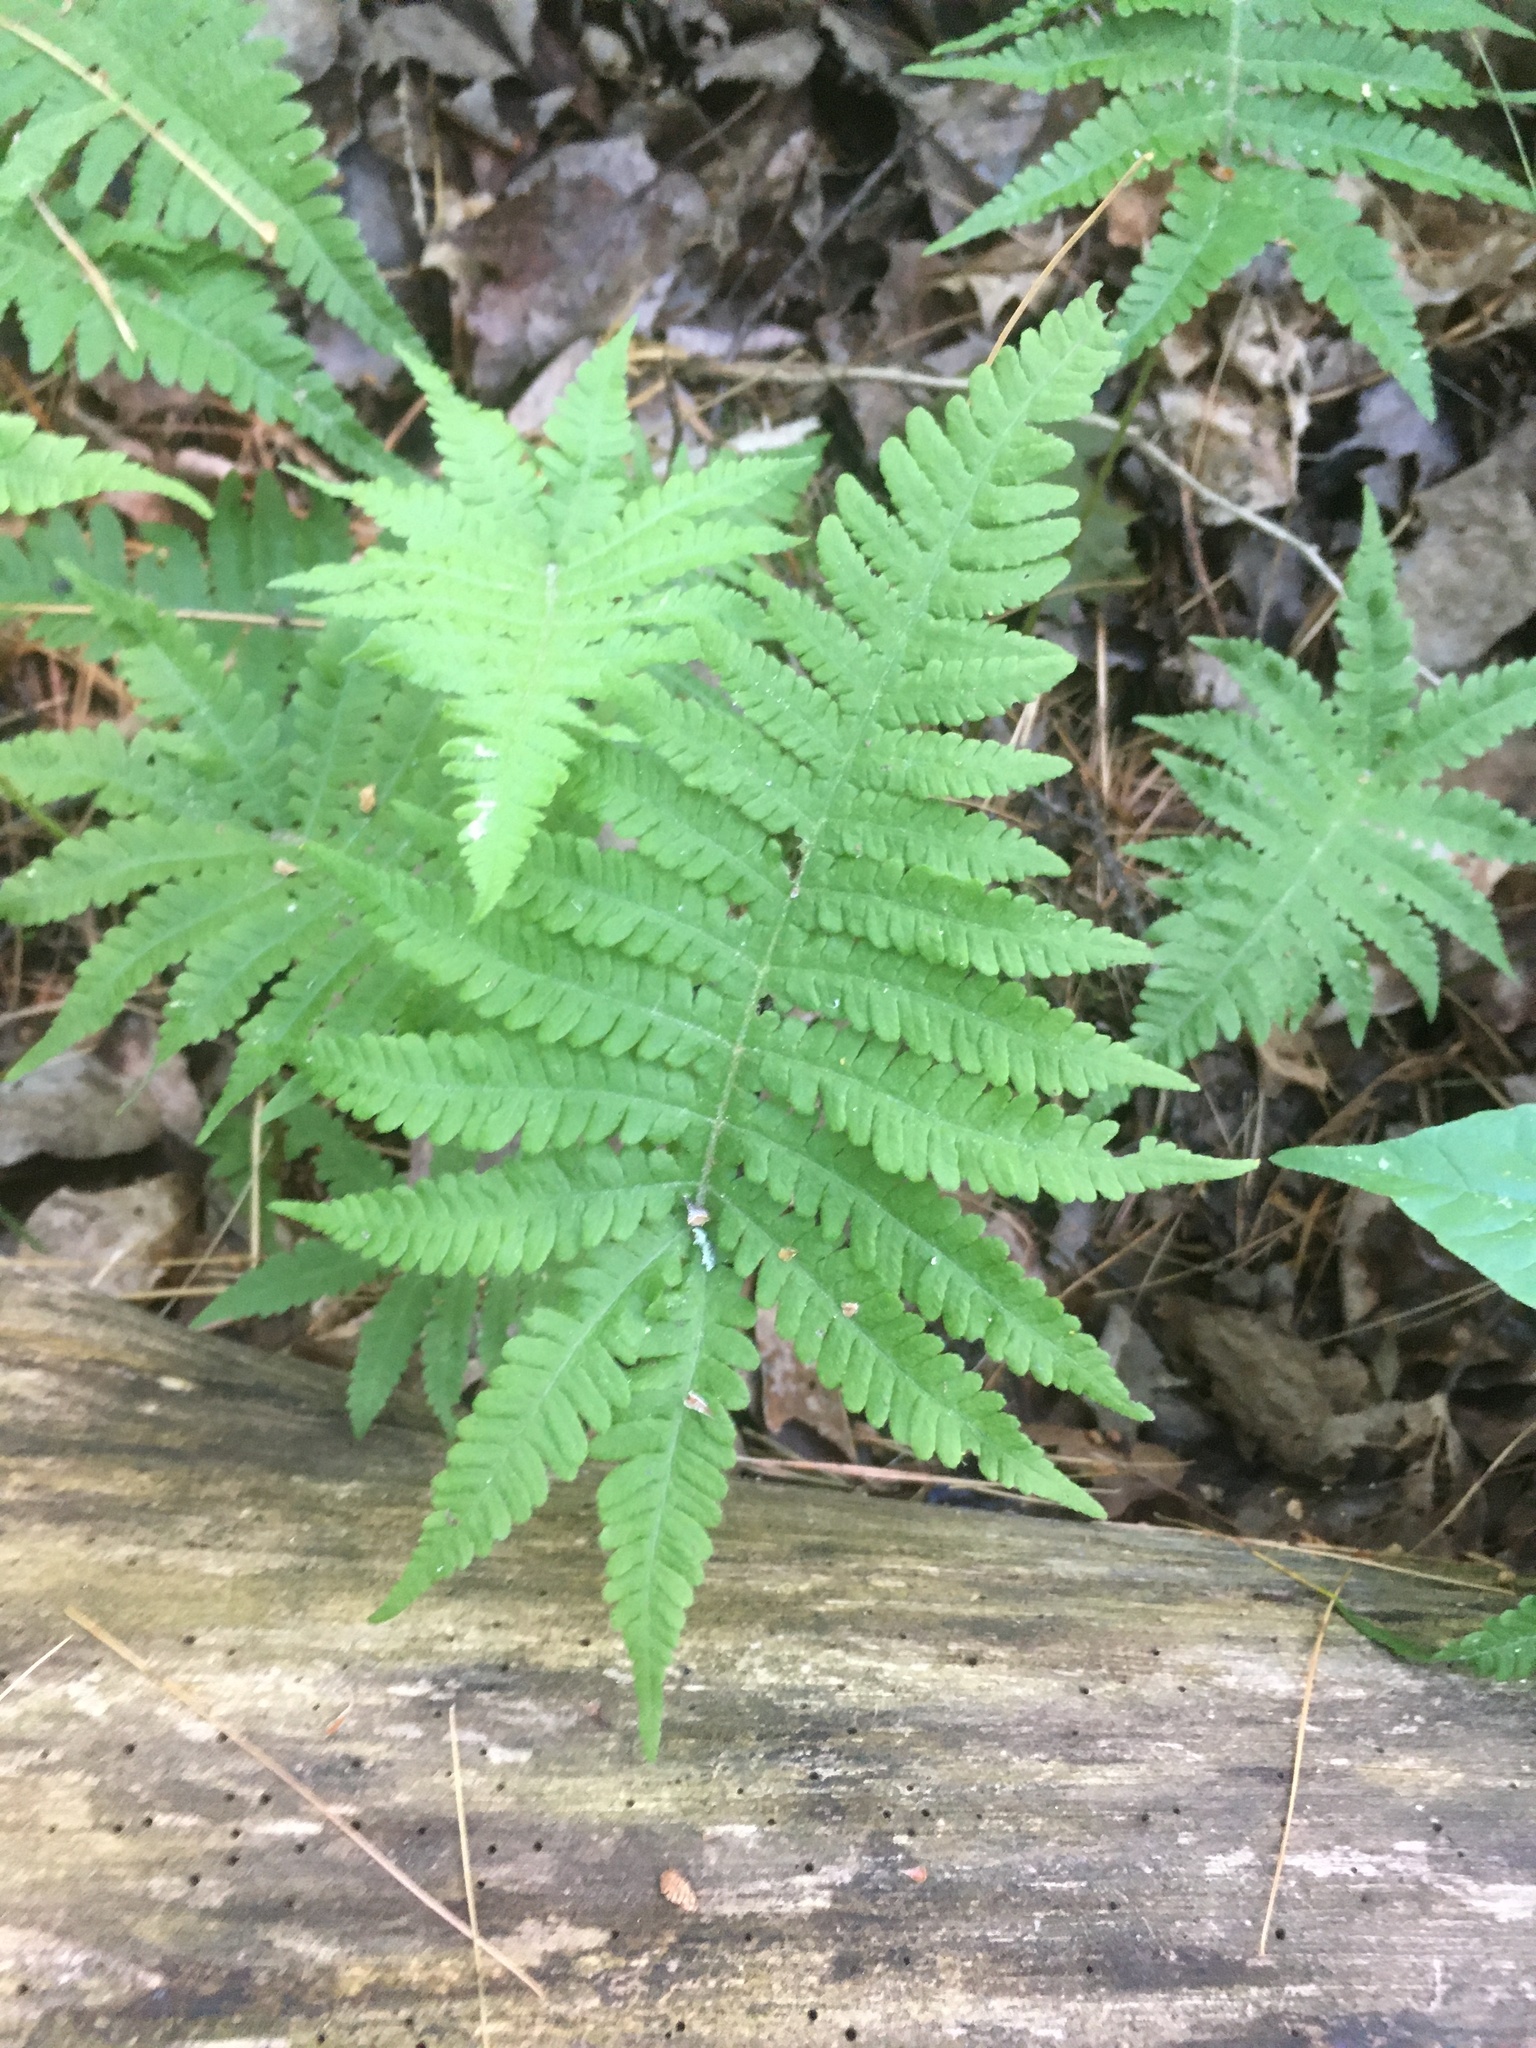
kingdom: Plantae
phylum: Tracheophyta
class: Polypodiopsida
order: Polypodiales
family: Thelypteridaceae
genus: Phegopteris
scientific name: Phegopteris connectilis
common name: Beech fern
